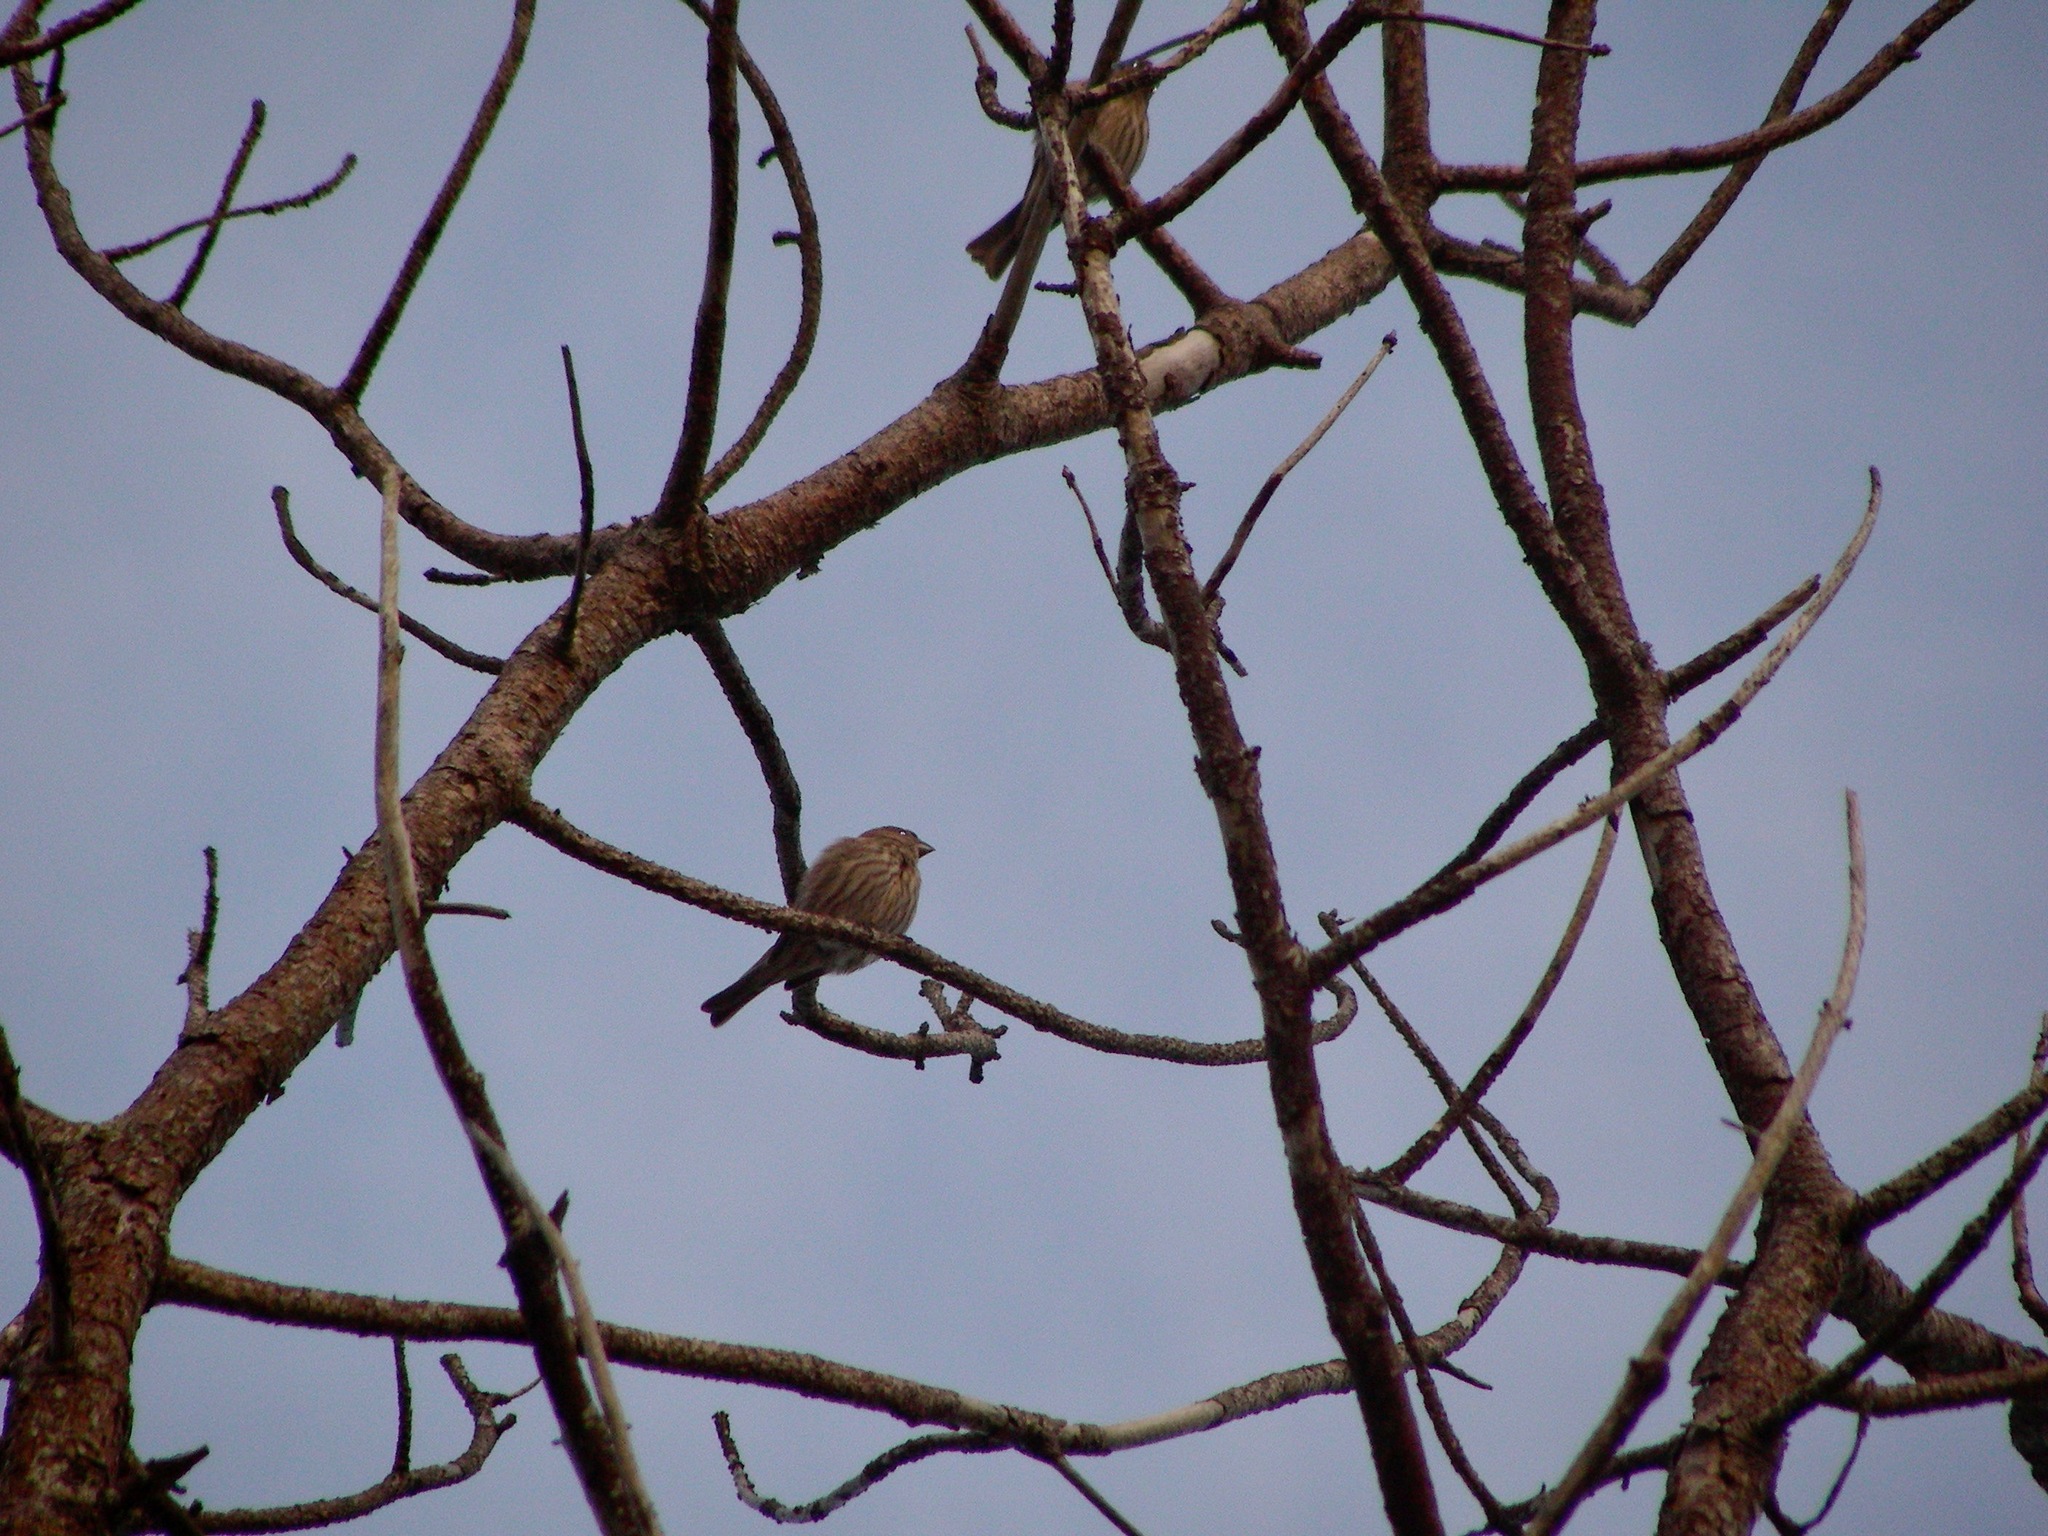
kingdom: Animalia
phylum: Chordata
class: Aves
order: Passeriformes
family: Fringillidae
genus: Haemorhous
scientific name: Haemorhous mexicanus
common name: House finch
